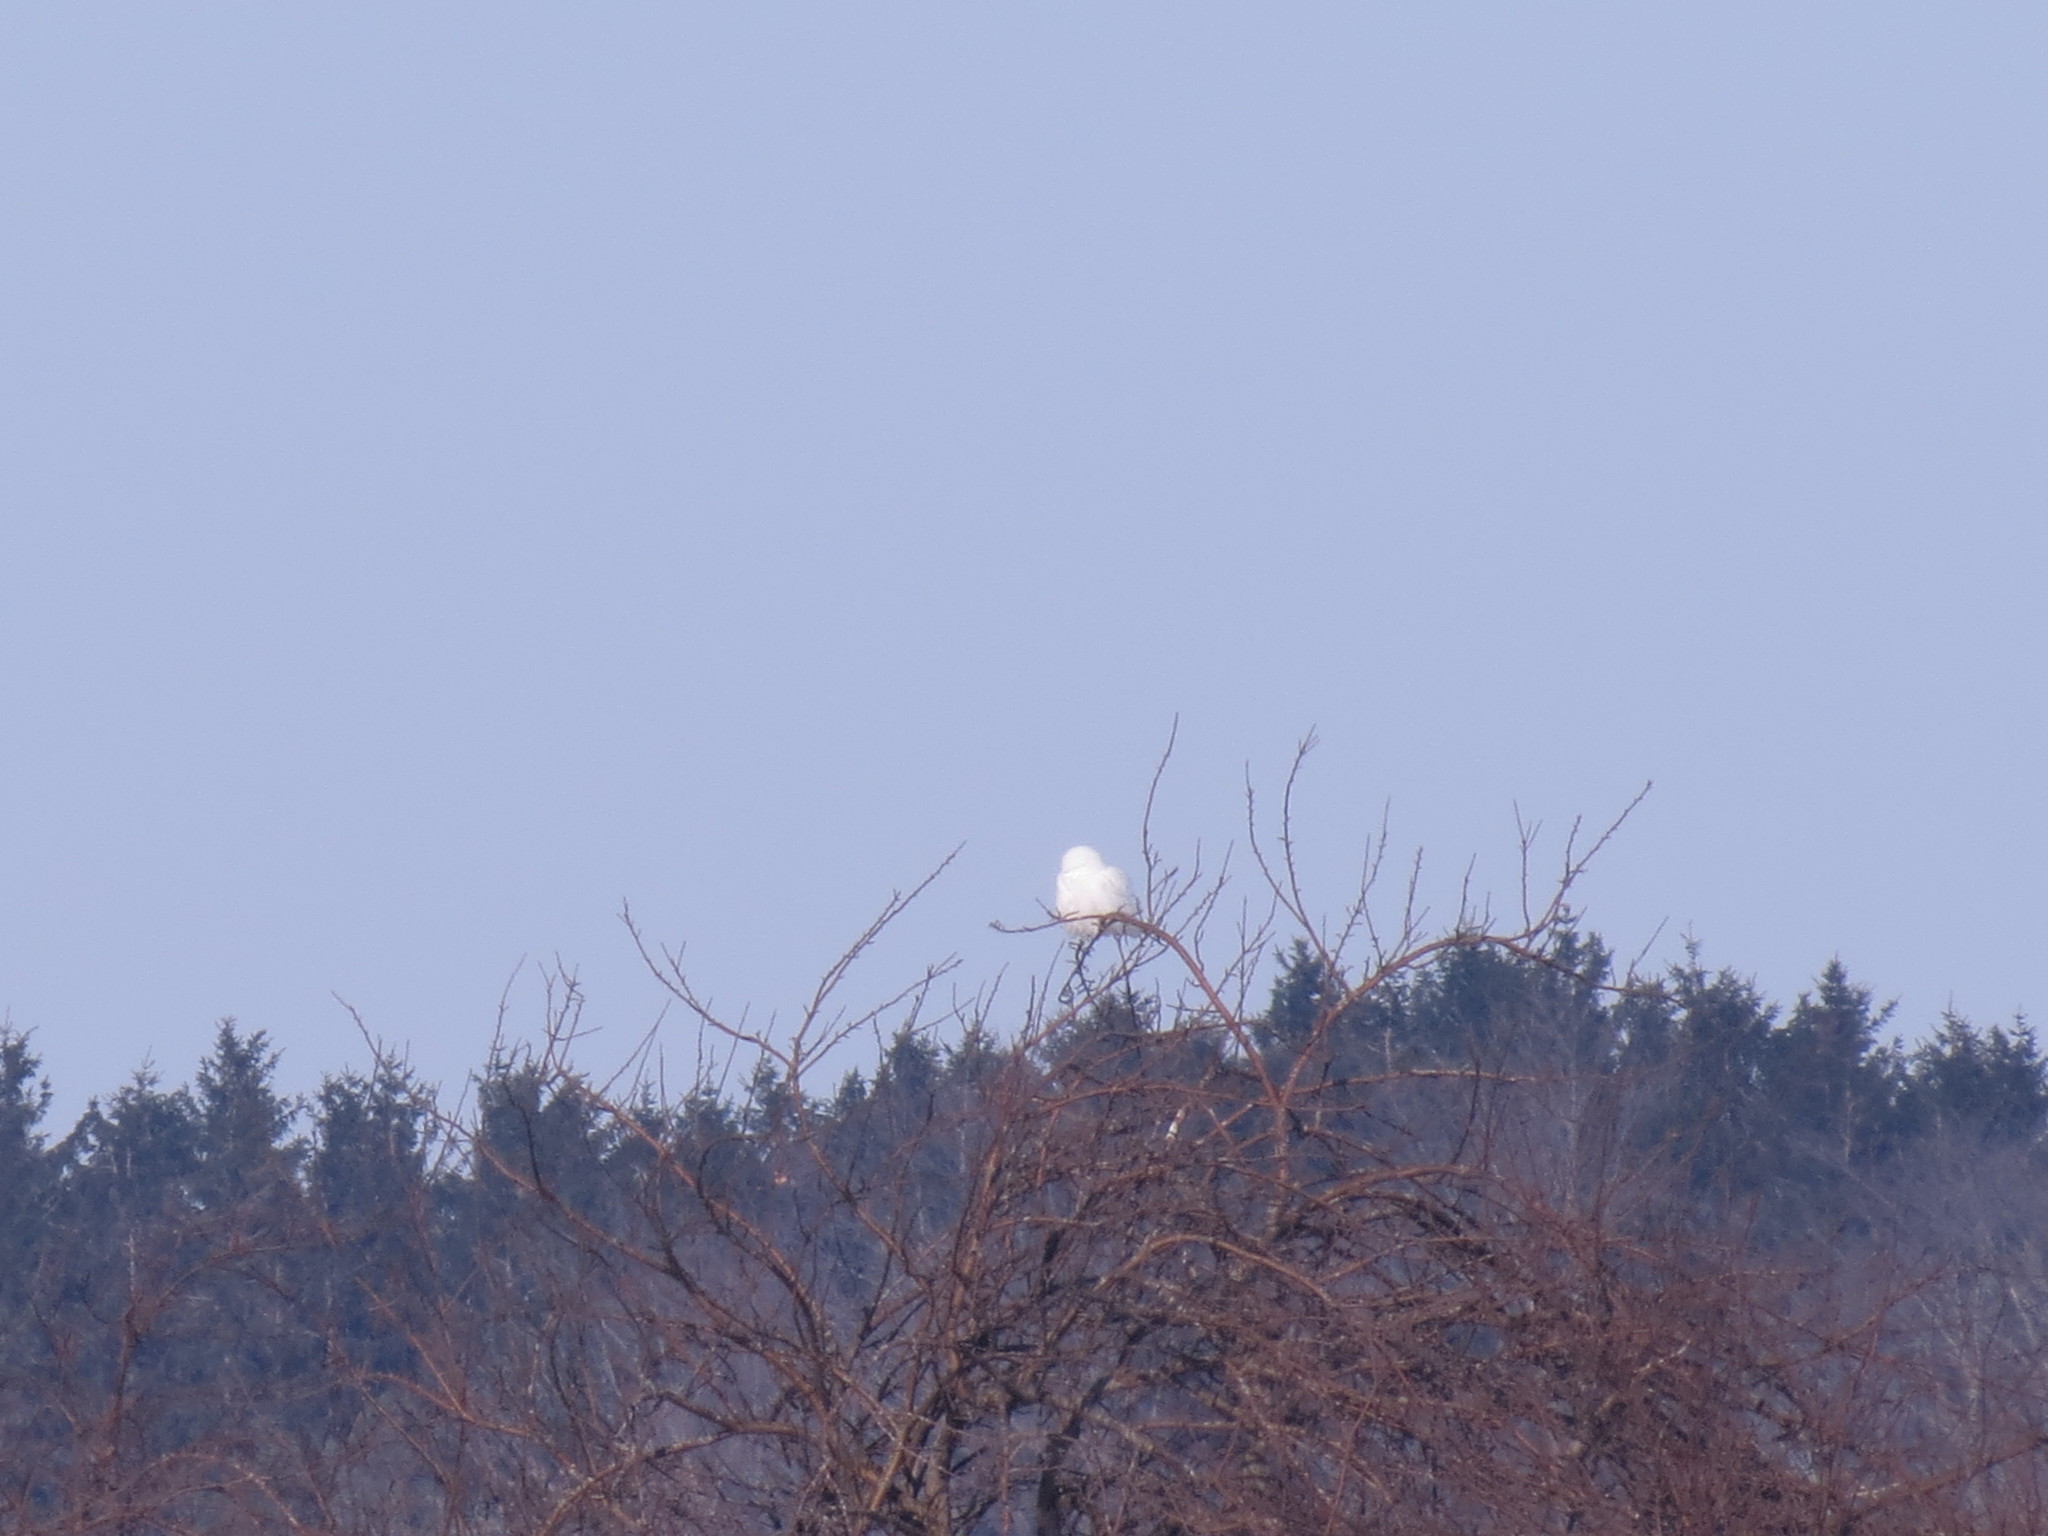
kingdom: Animalia
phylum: Chordata
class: Aves
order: Strigiformes
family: Strigidae
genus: Bubo
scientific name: Bubo scandiacus
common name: Snowy owl
